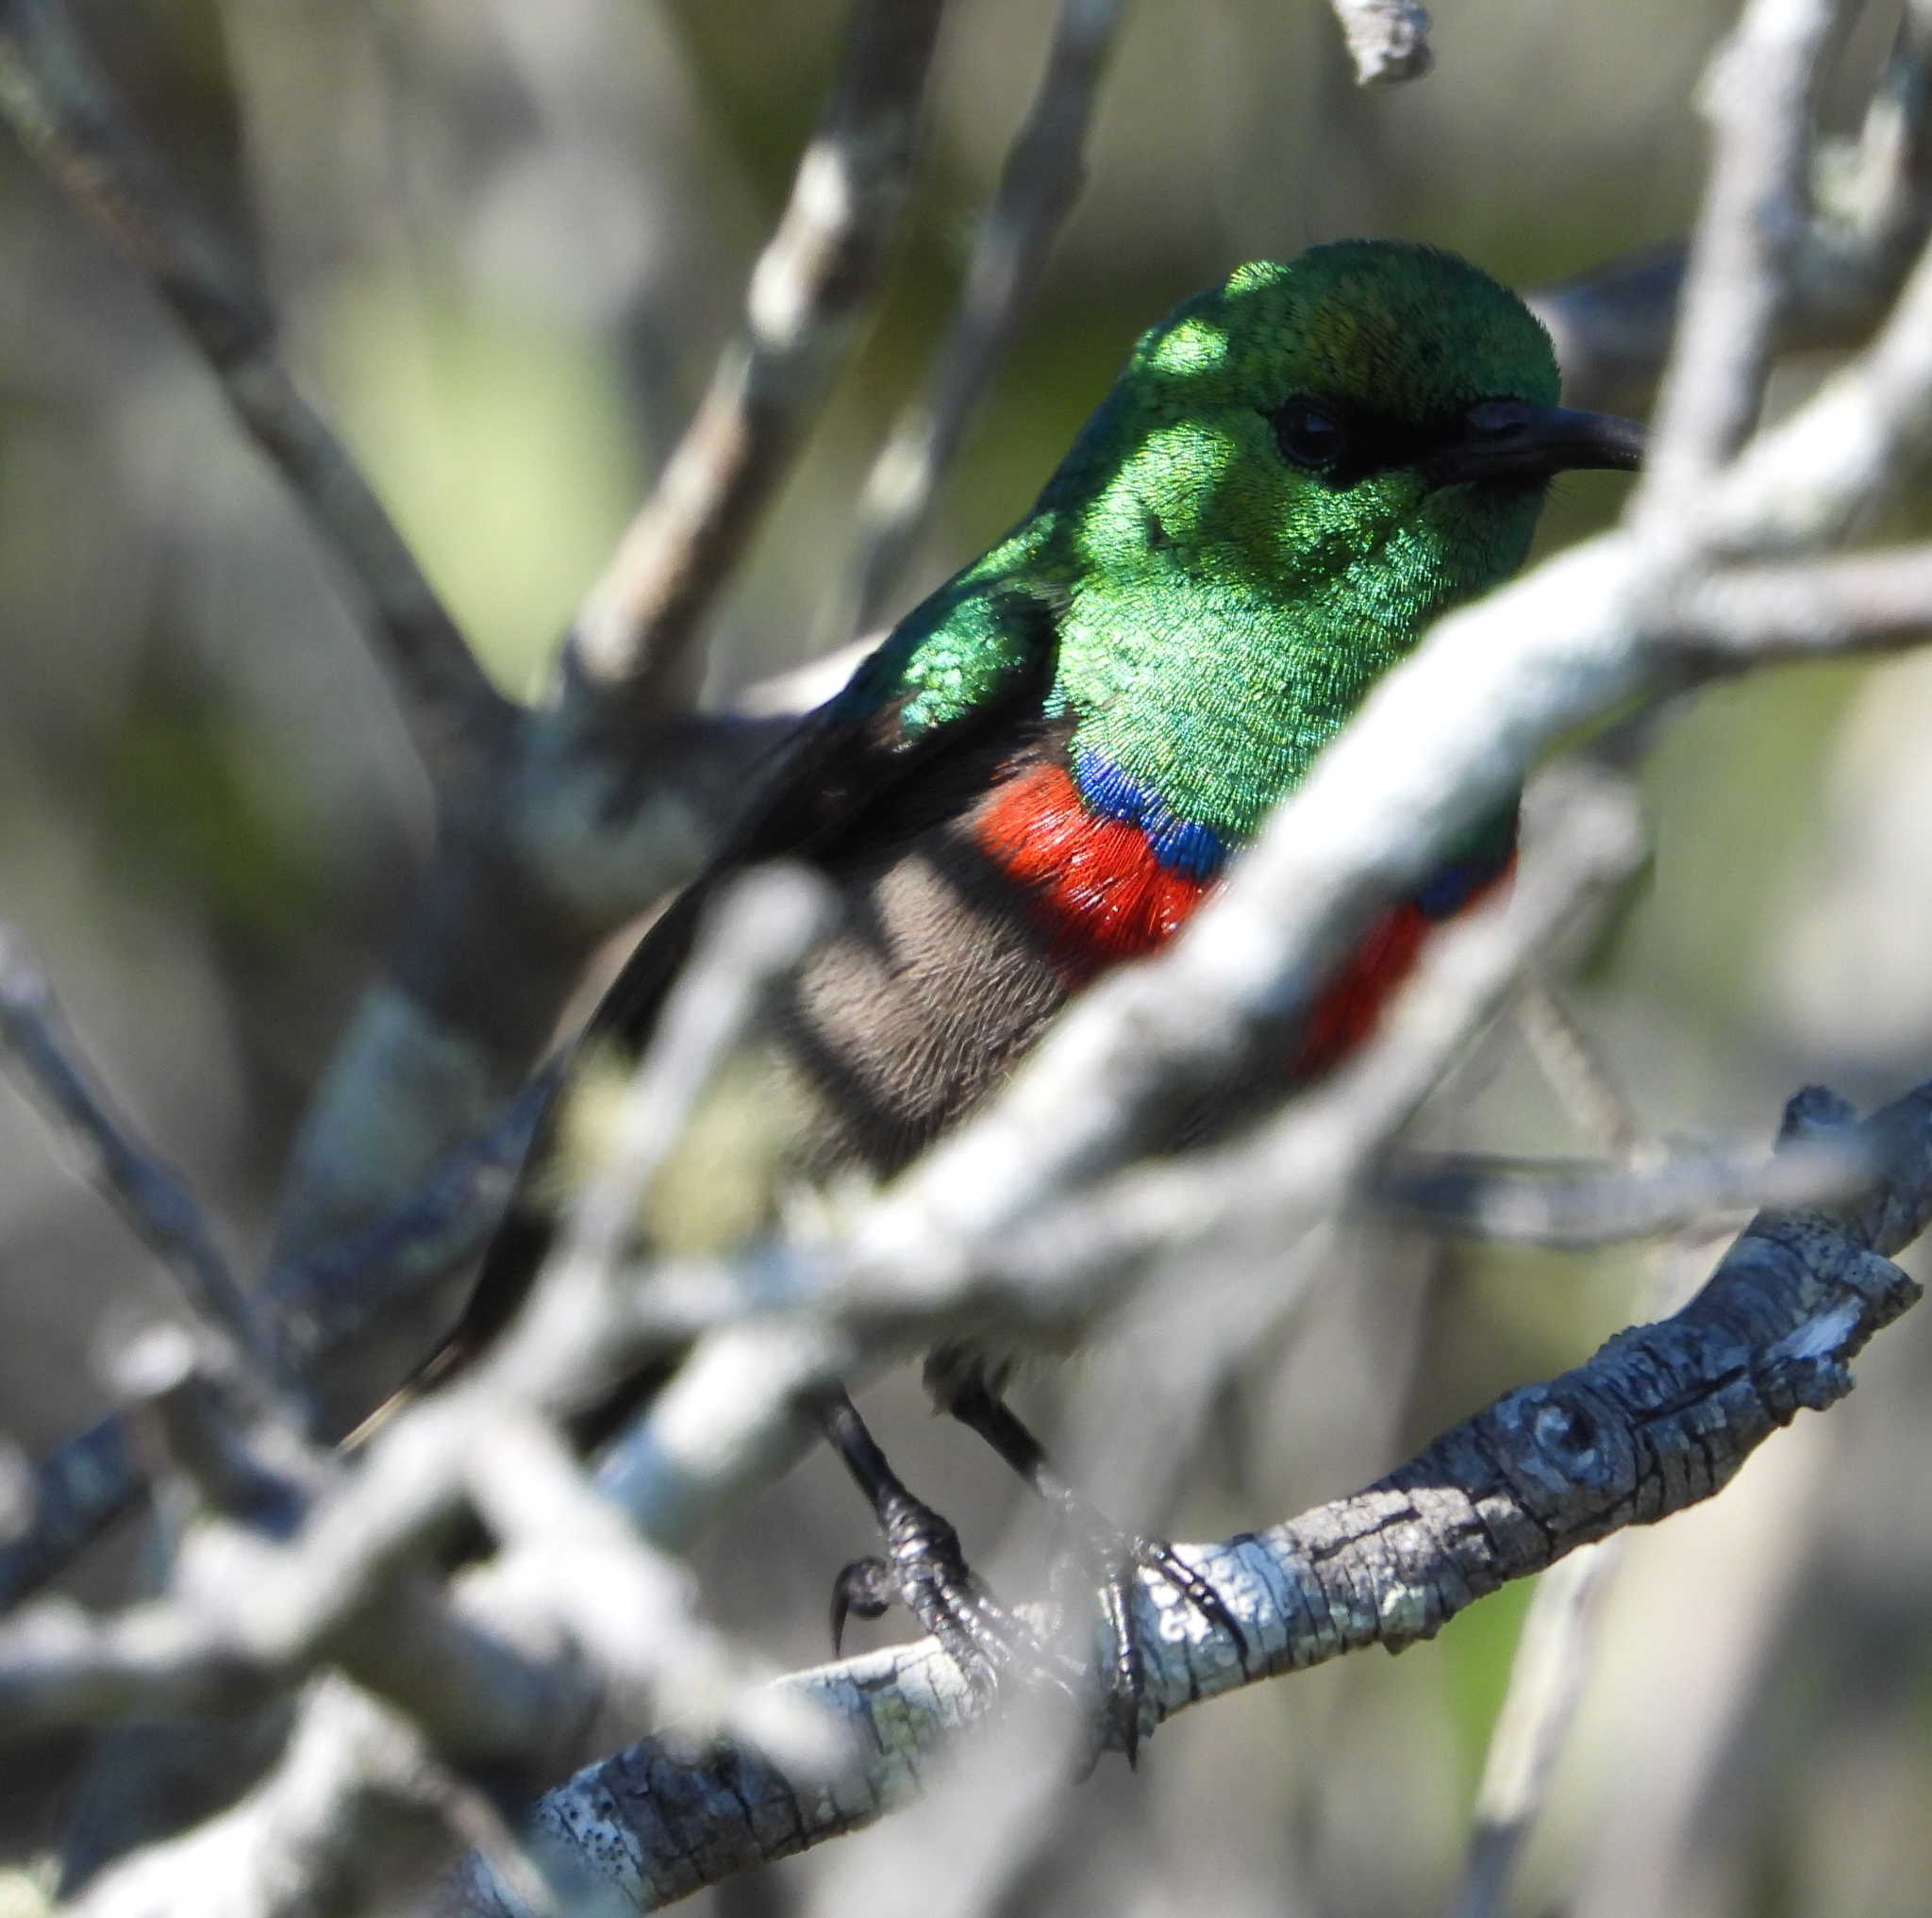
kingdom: Animalia
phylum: Chordata
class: Aves
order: Passeriformes
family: Nectariniidae
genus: Cinnyris
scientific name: Cinnyris chalybeus
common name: Southern double-collared sunbird
